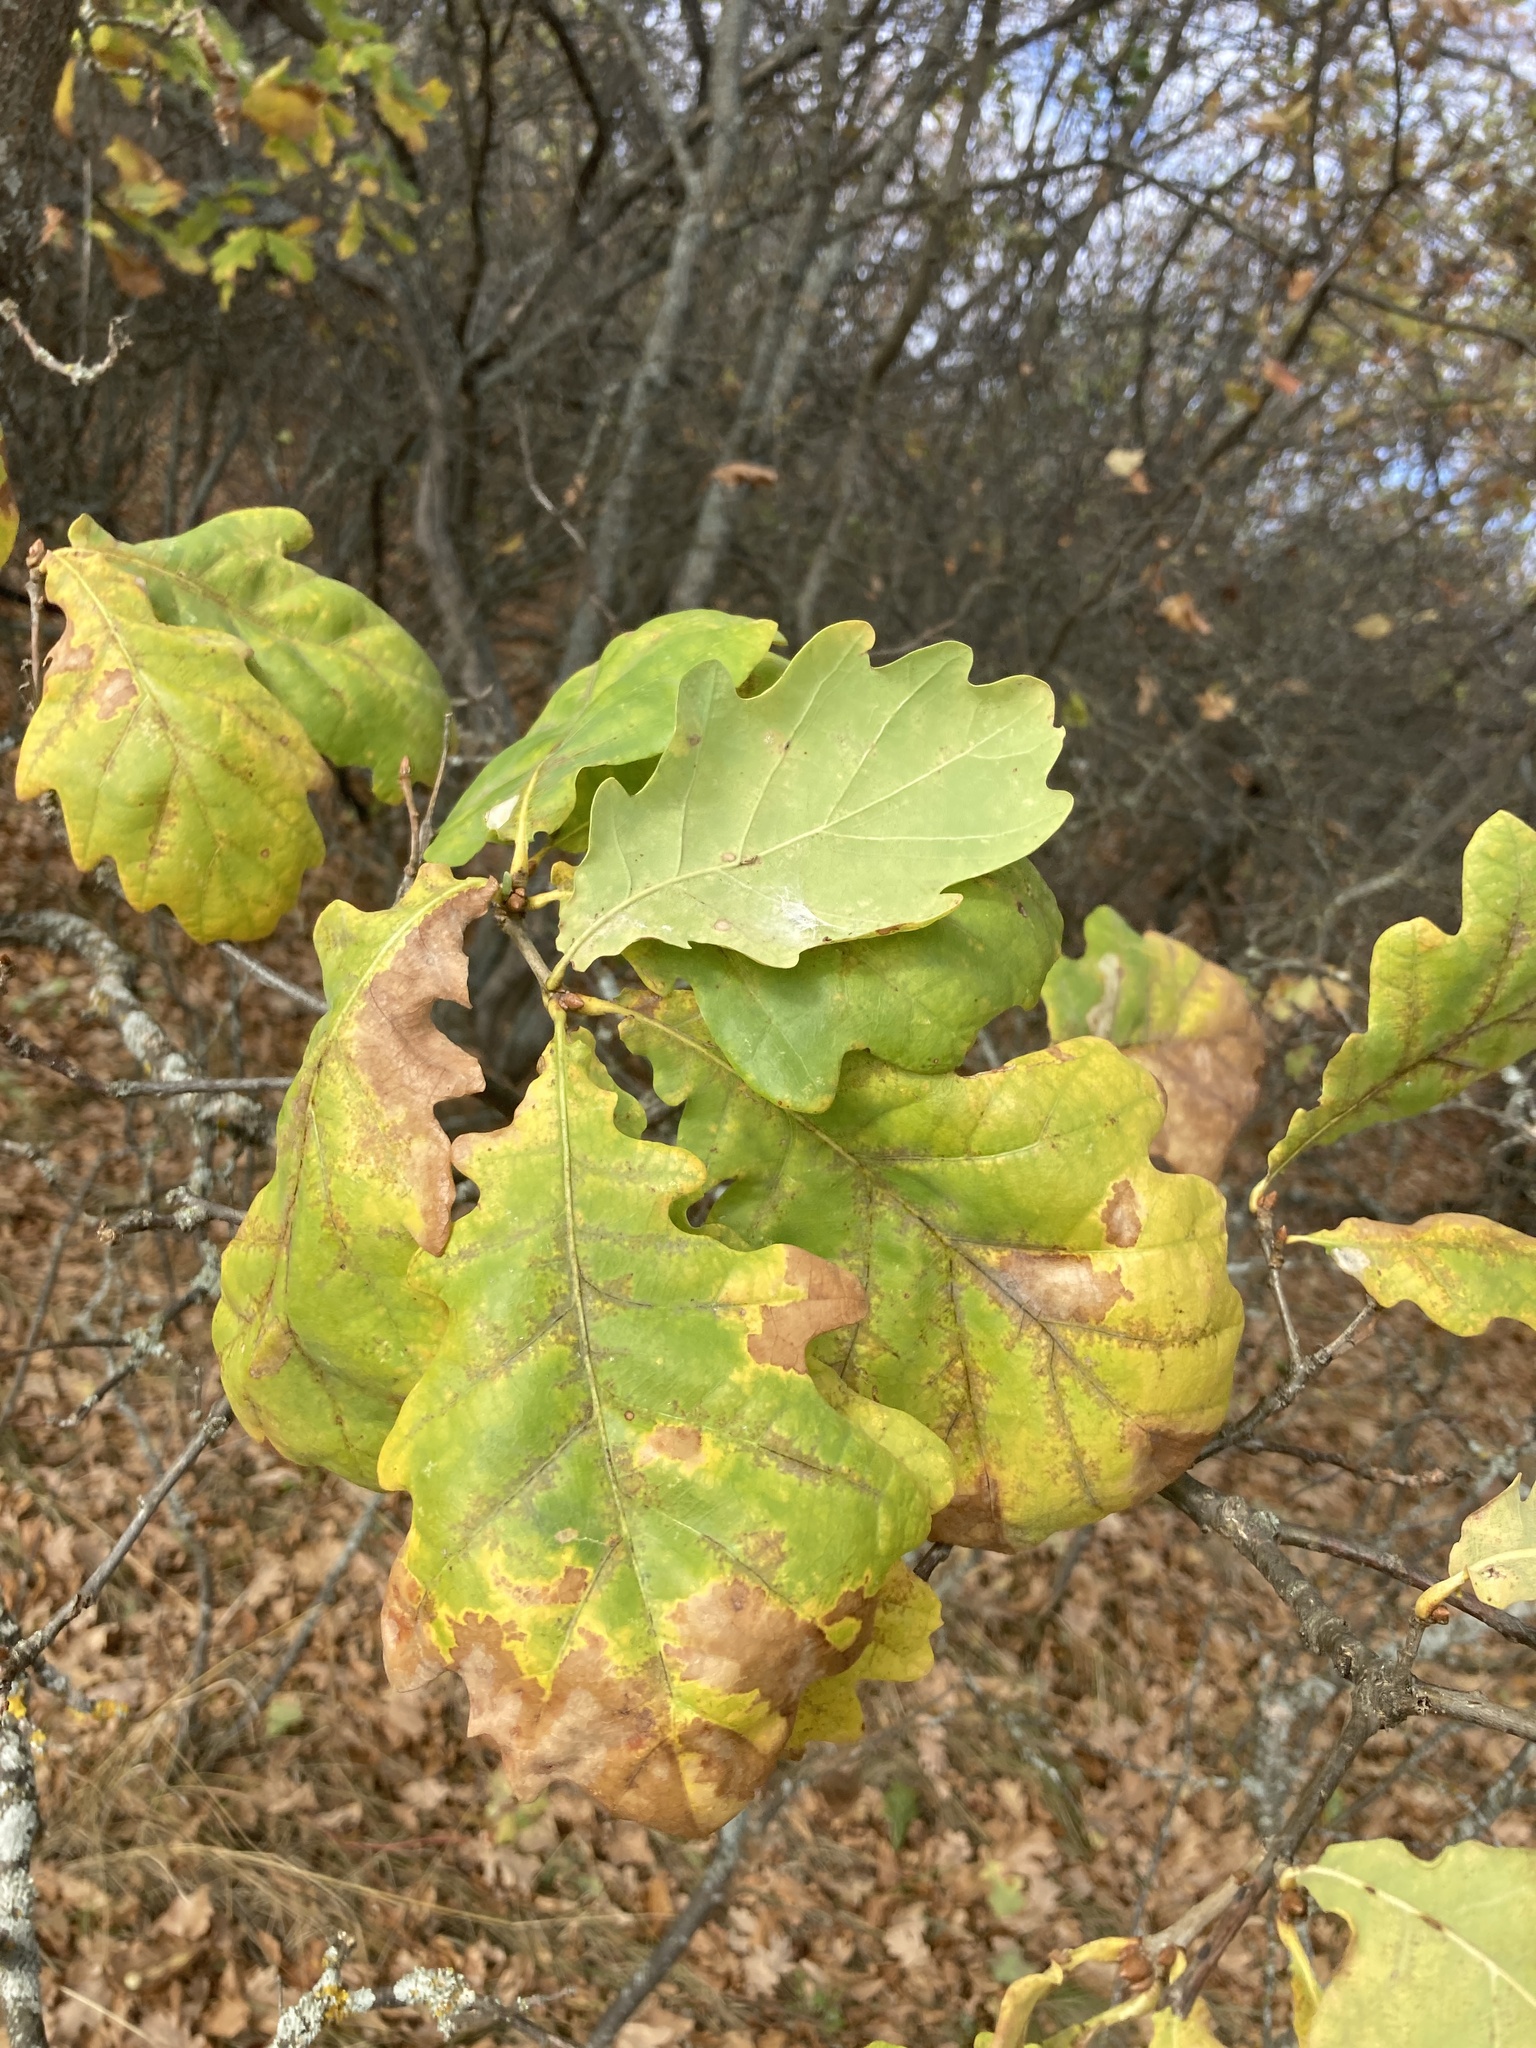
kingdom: Plantae
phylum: Tracheophyta
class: Magnoliopsida
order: Fagales
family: Fagaceae
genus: Quercus
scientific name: Quercus robur
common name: Pedunculate oak
